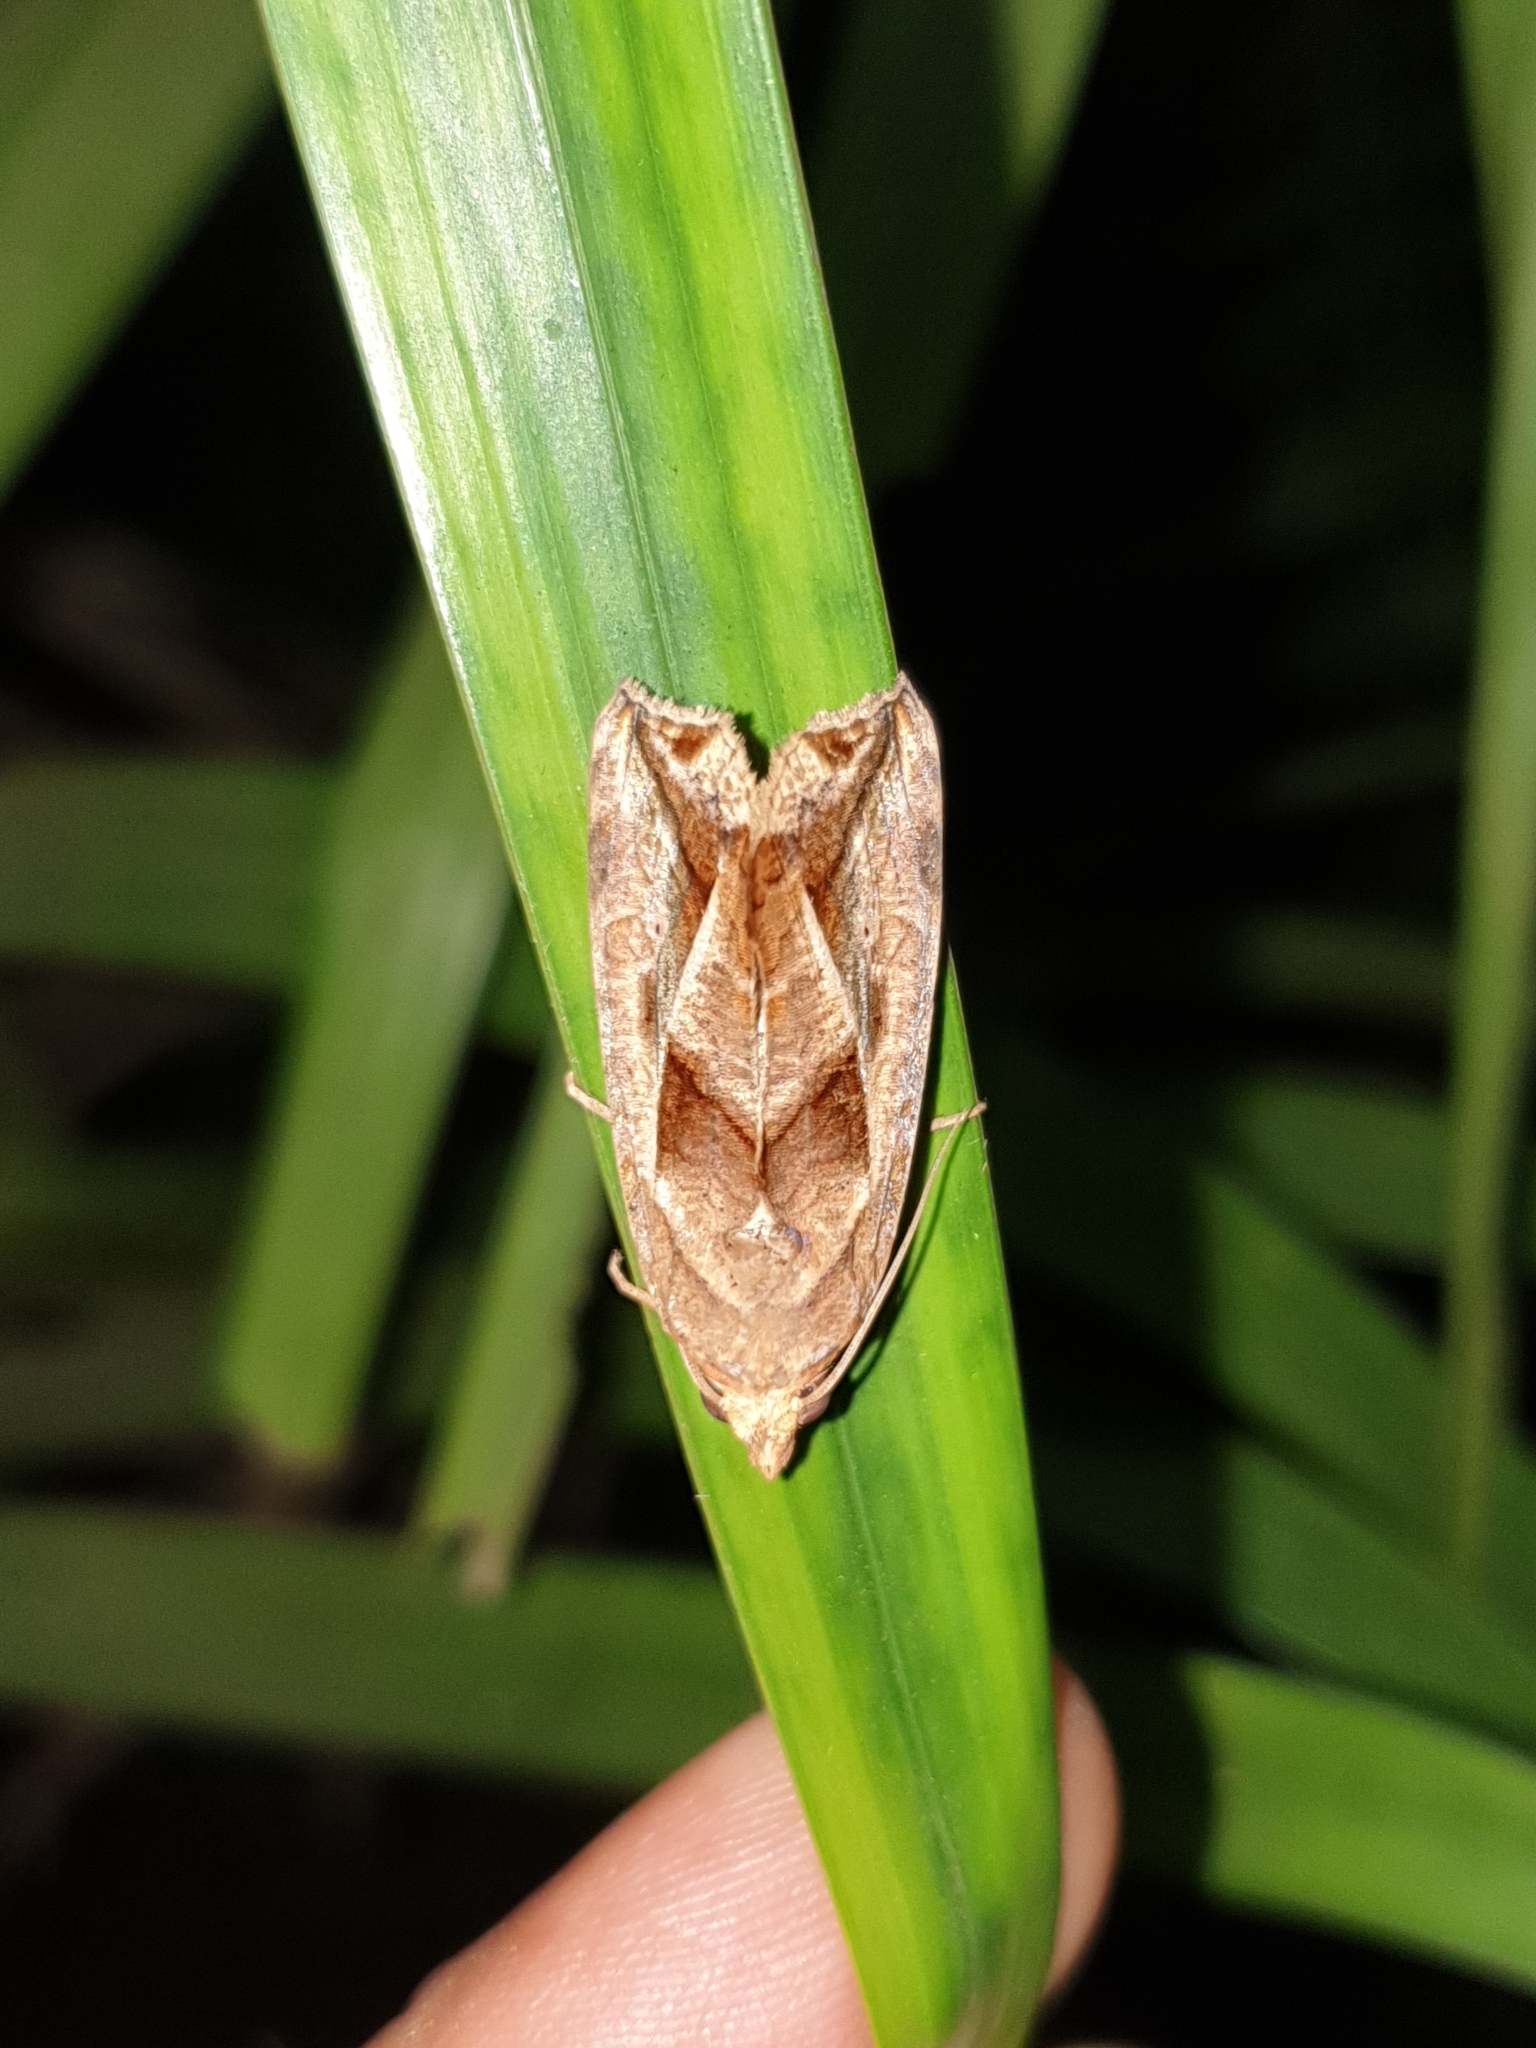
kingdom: Animalia
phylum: Arthropoda
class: Insecta
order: Lepidoptera
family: Erebidae
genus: Oraesia
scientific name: Oraesia emarginata
